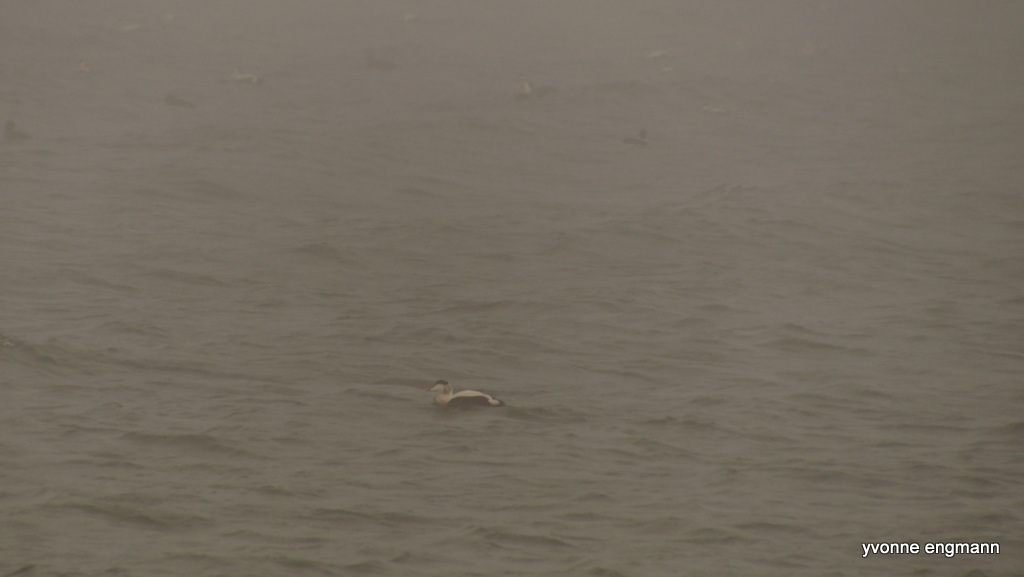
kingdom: Animalia
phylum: Chordata
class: Aves
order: Anseriformes
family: Anatidae
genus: Somateria
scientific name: Somateria mollissima
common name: Common eider
